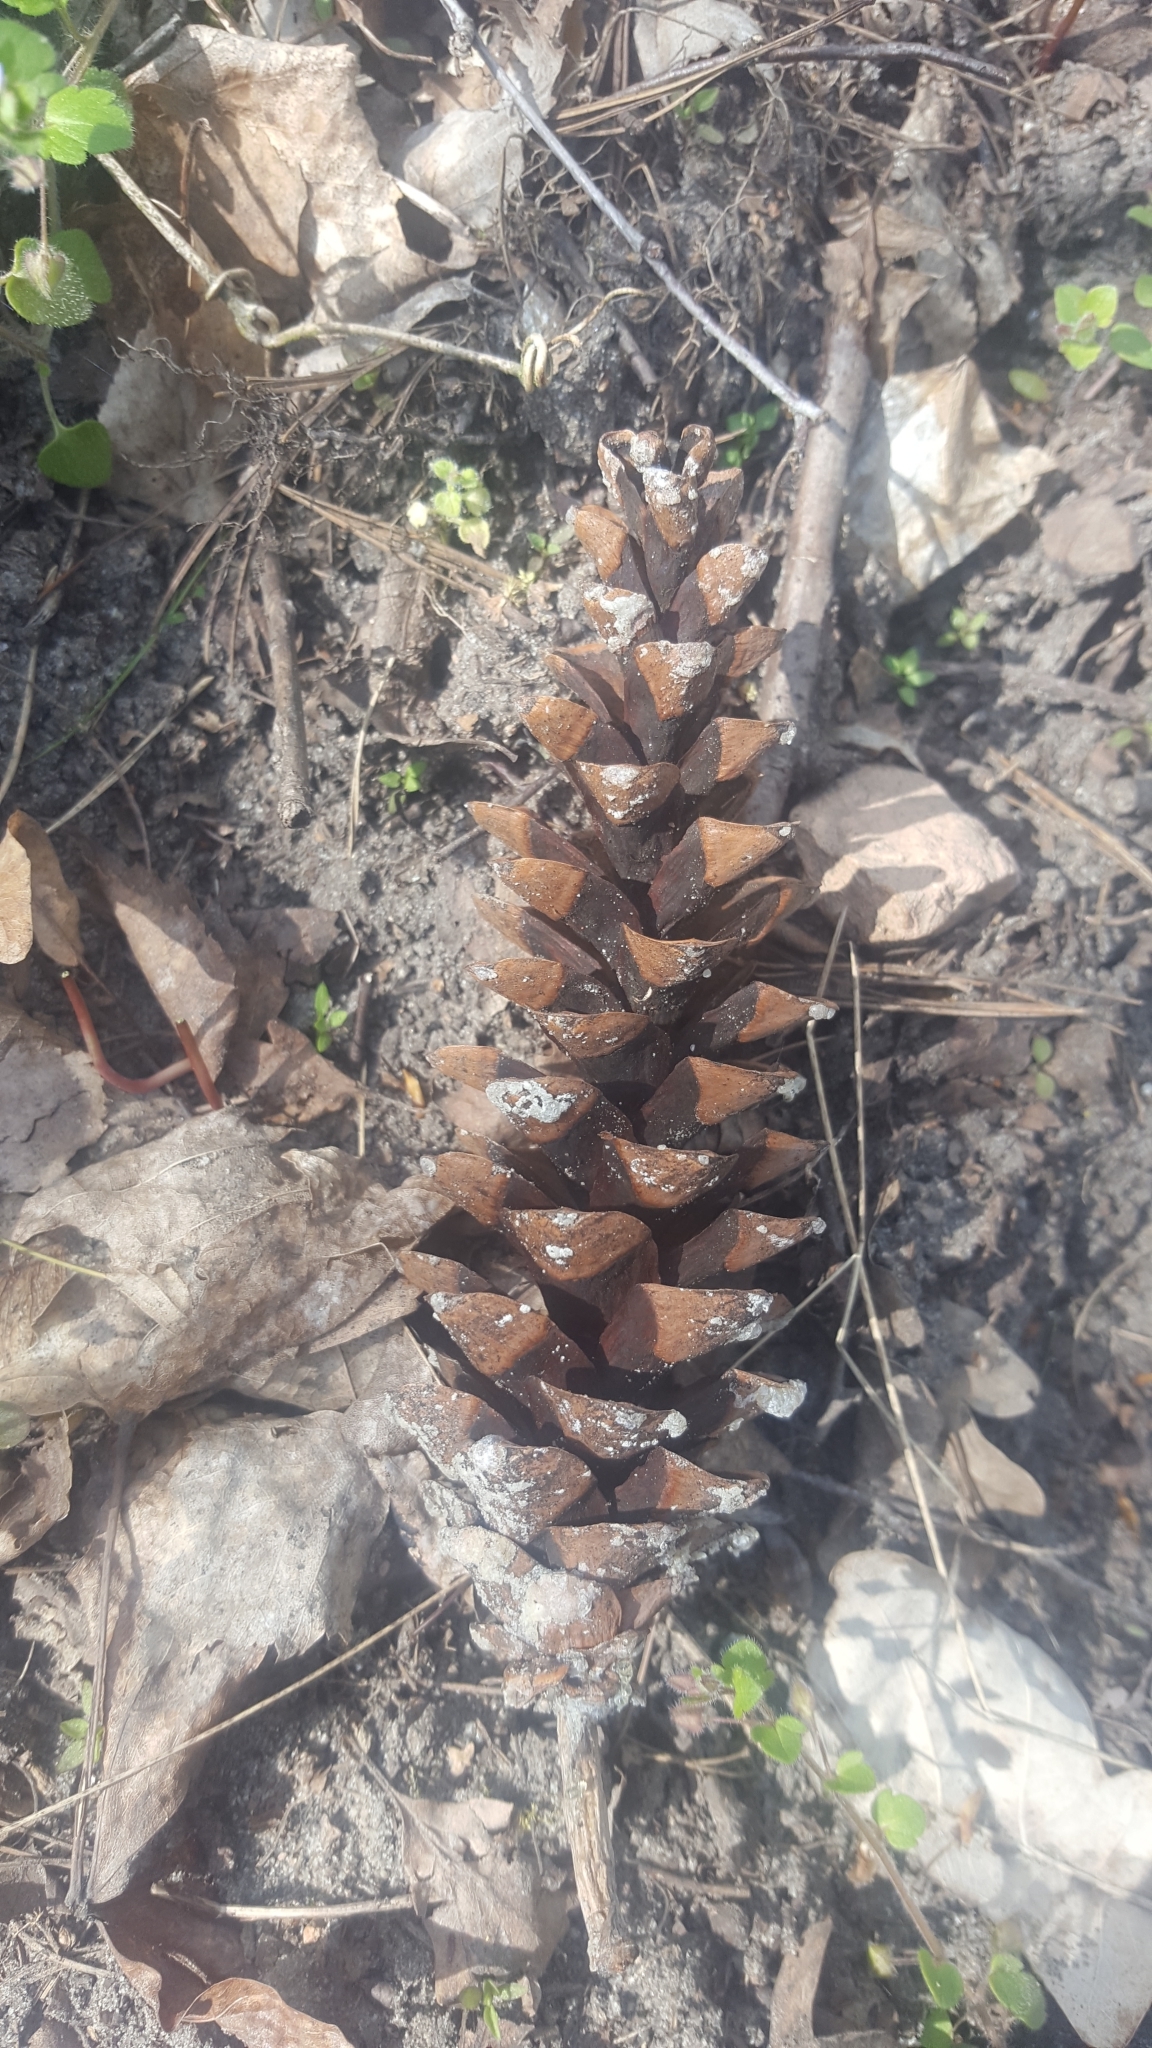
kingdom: Plantae
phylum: Tracheophyta
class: Pinopsida
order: Pinales
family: Pinaceae
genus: Pinus
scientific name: Pinus strobus
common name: Weymouth pine
